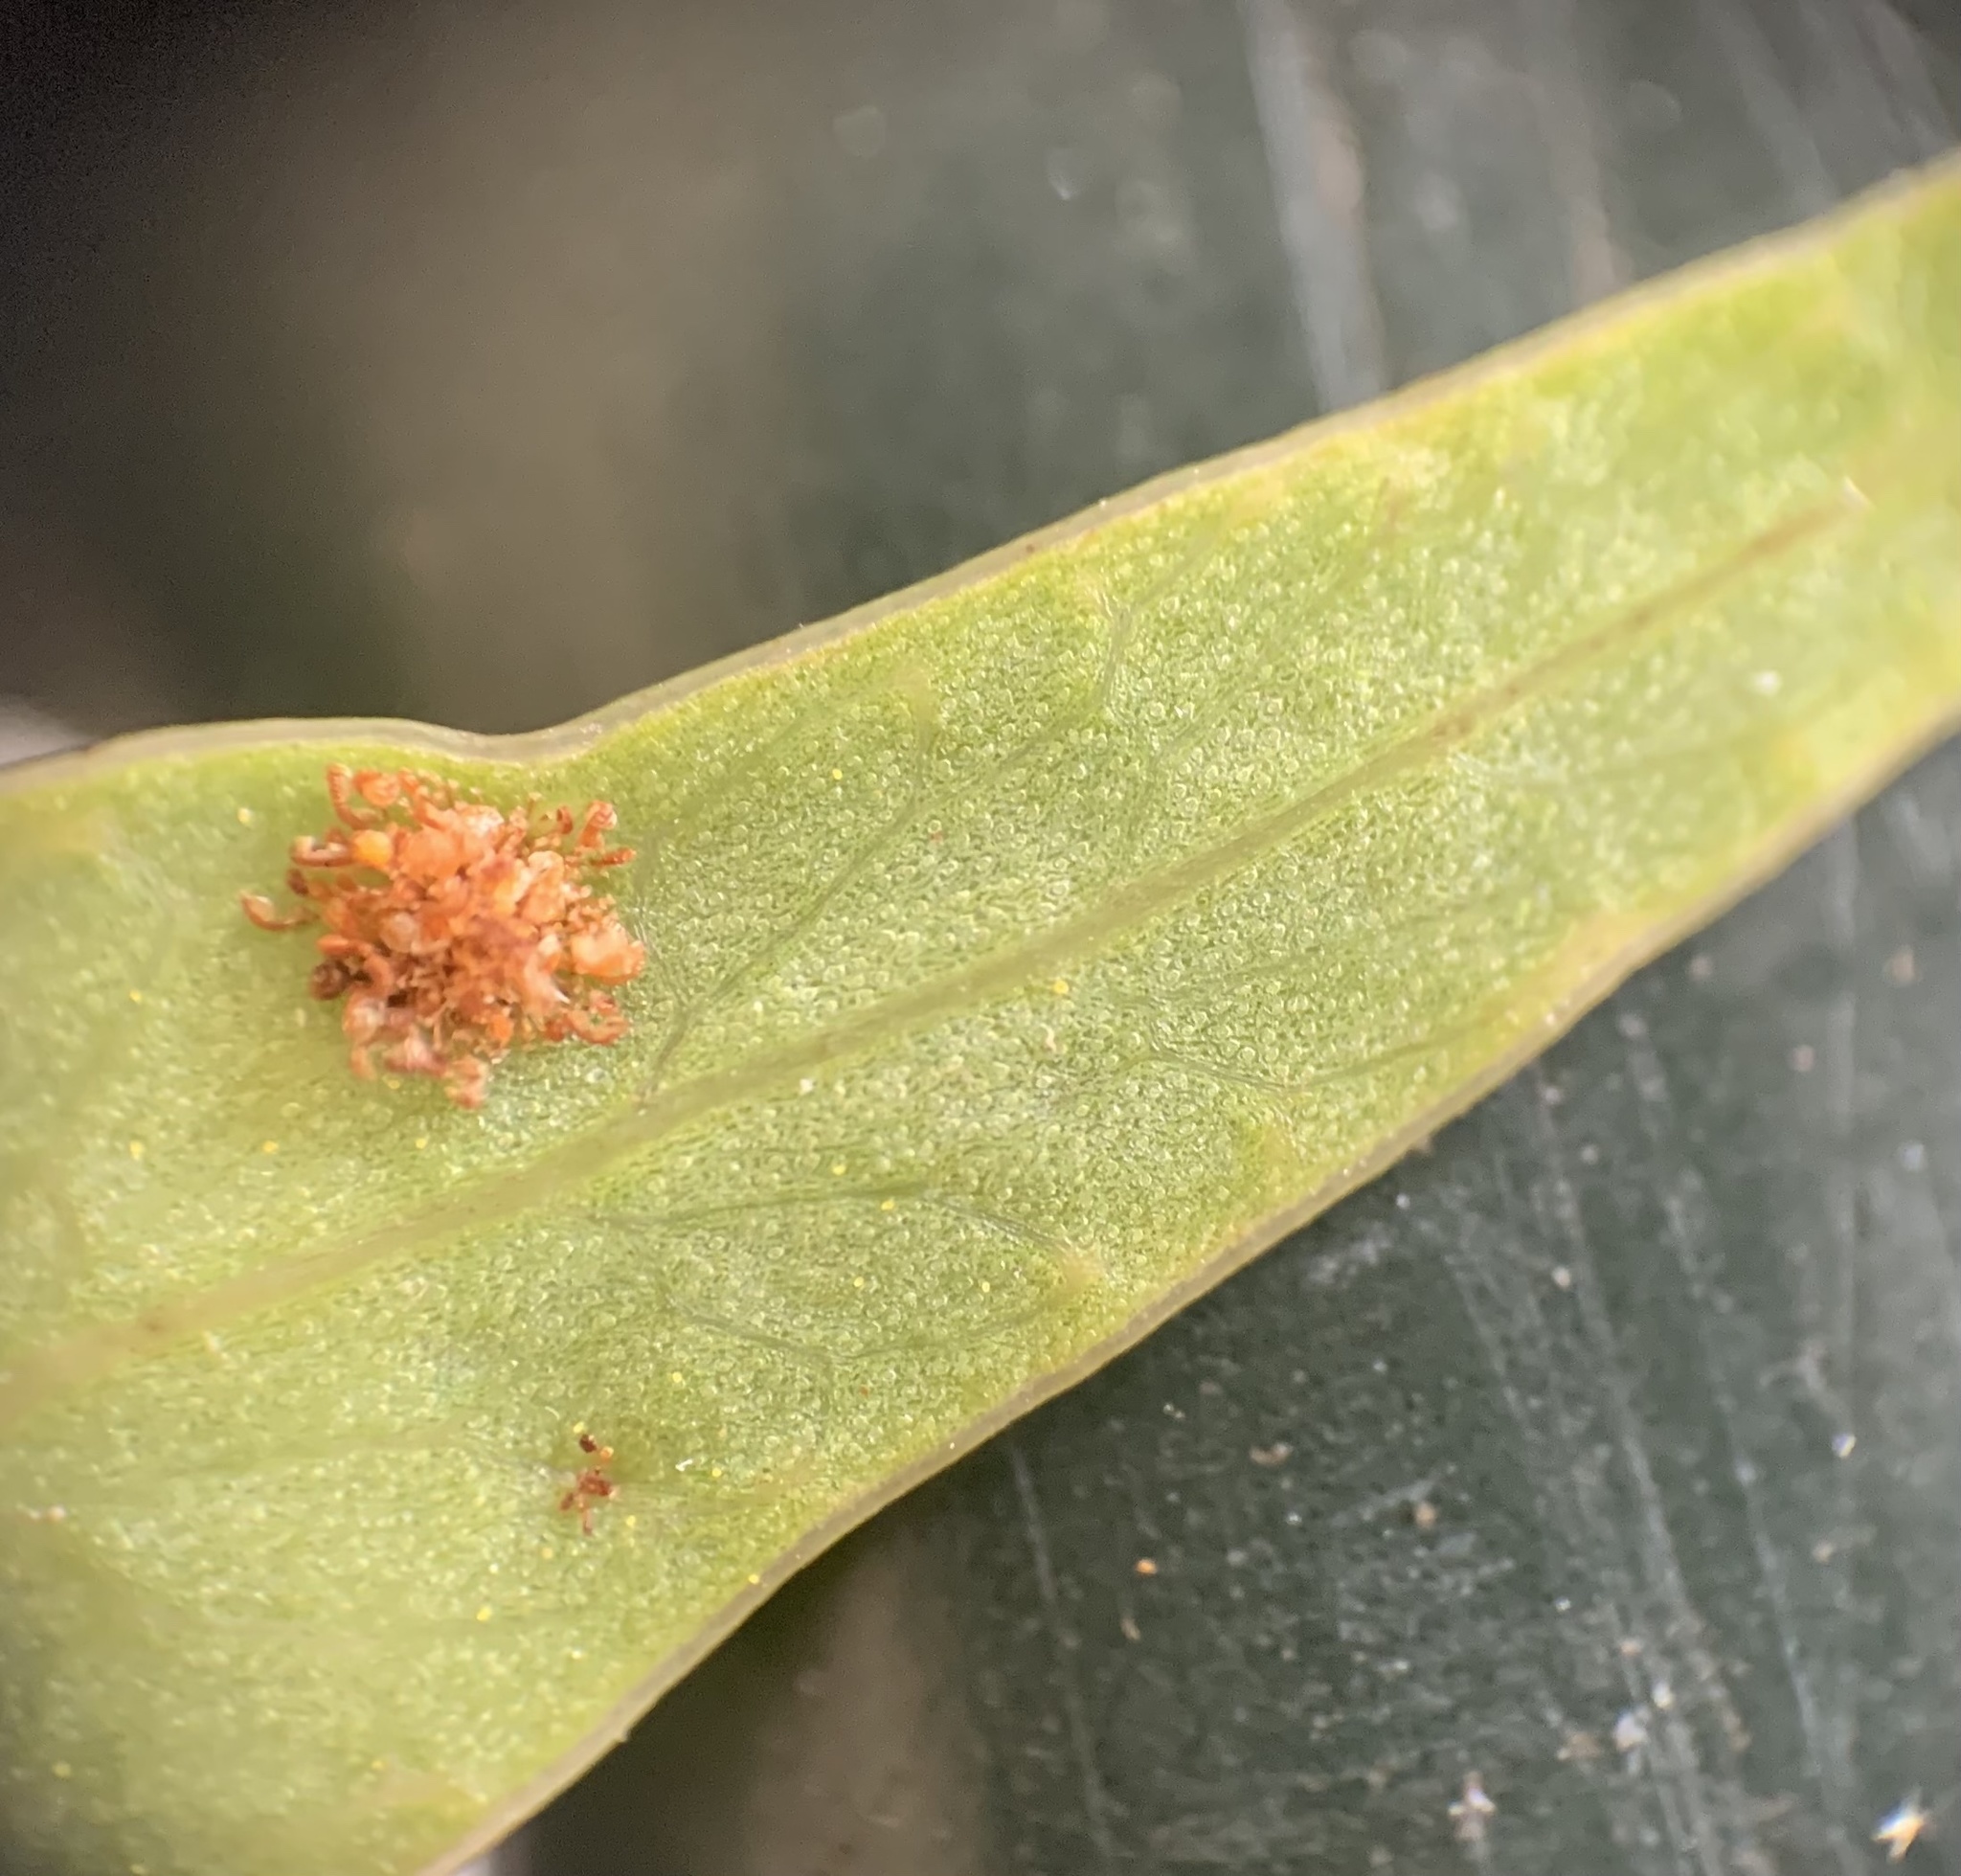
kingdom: Plantae
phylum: Tracheophyta
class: Polypodiopsida
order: Polypodiales
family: Polypodiaceae
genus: Phlebodium
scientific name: Phlebodium aureum
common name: Gold-foot fern
